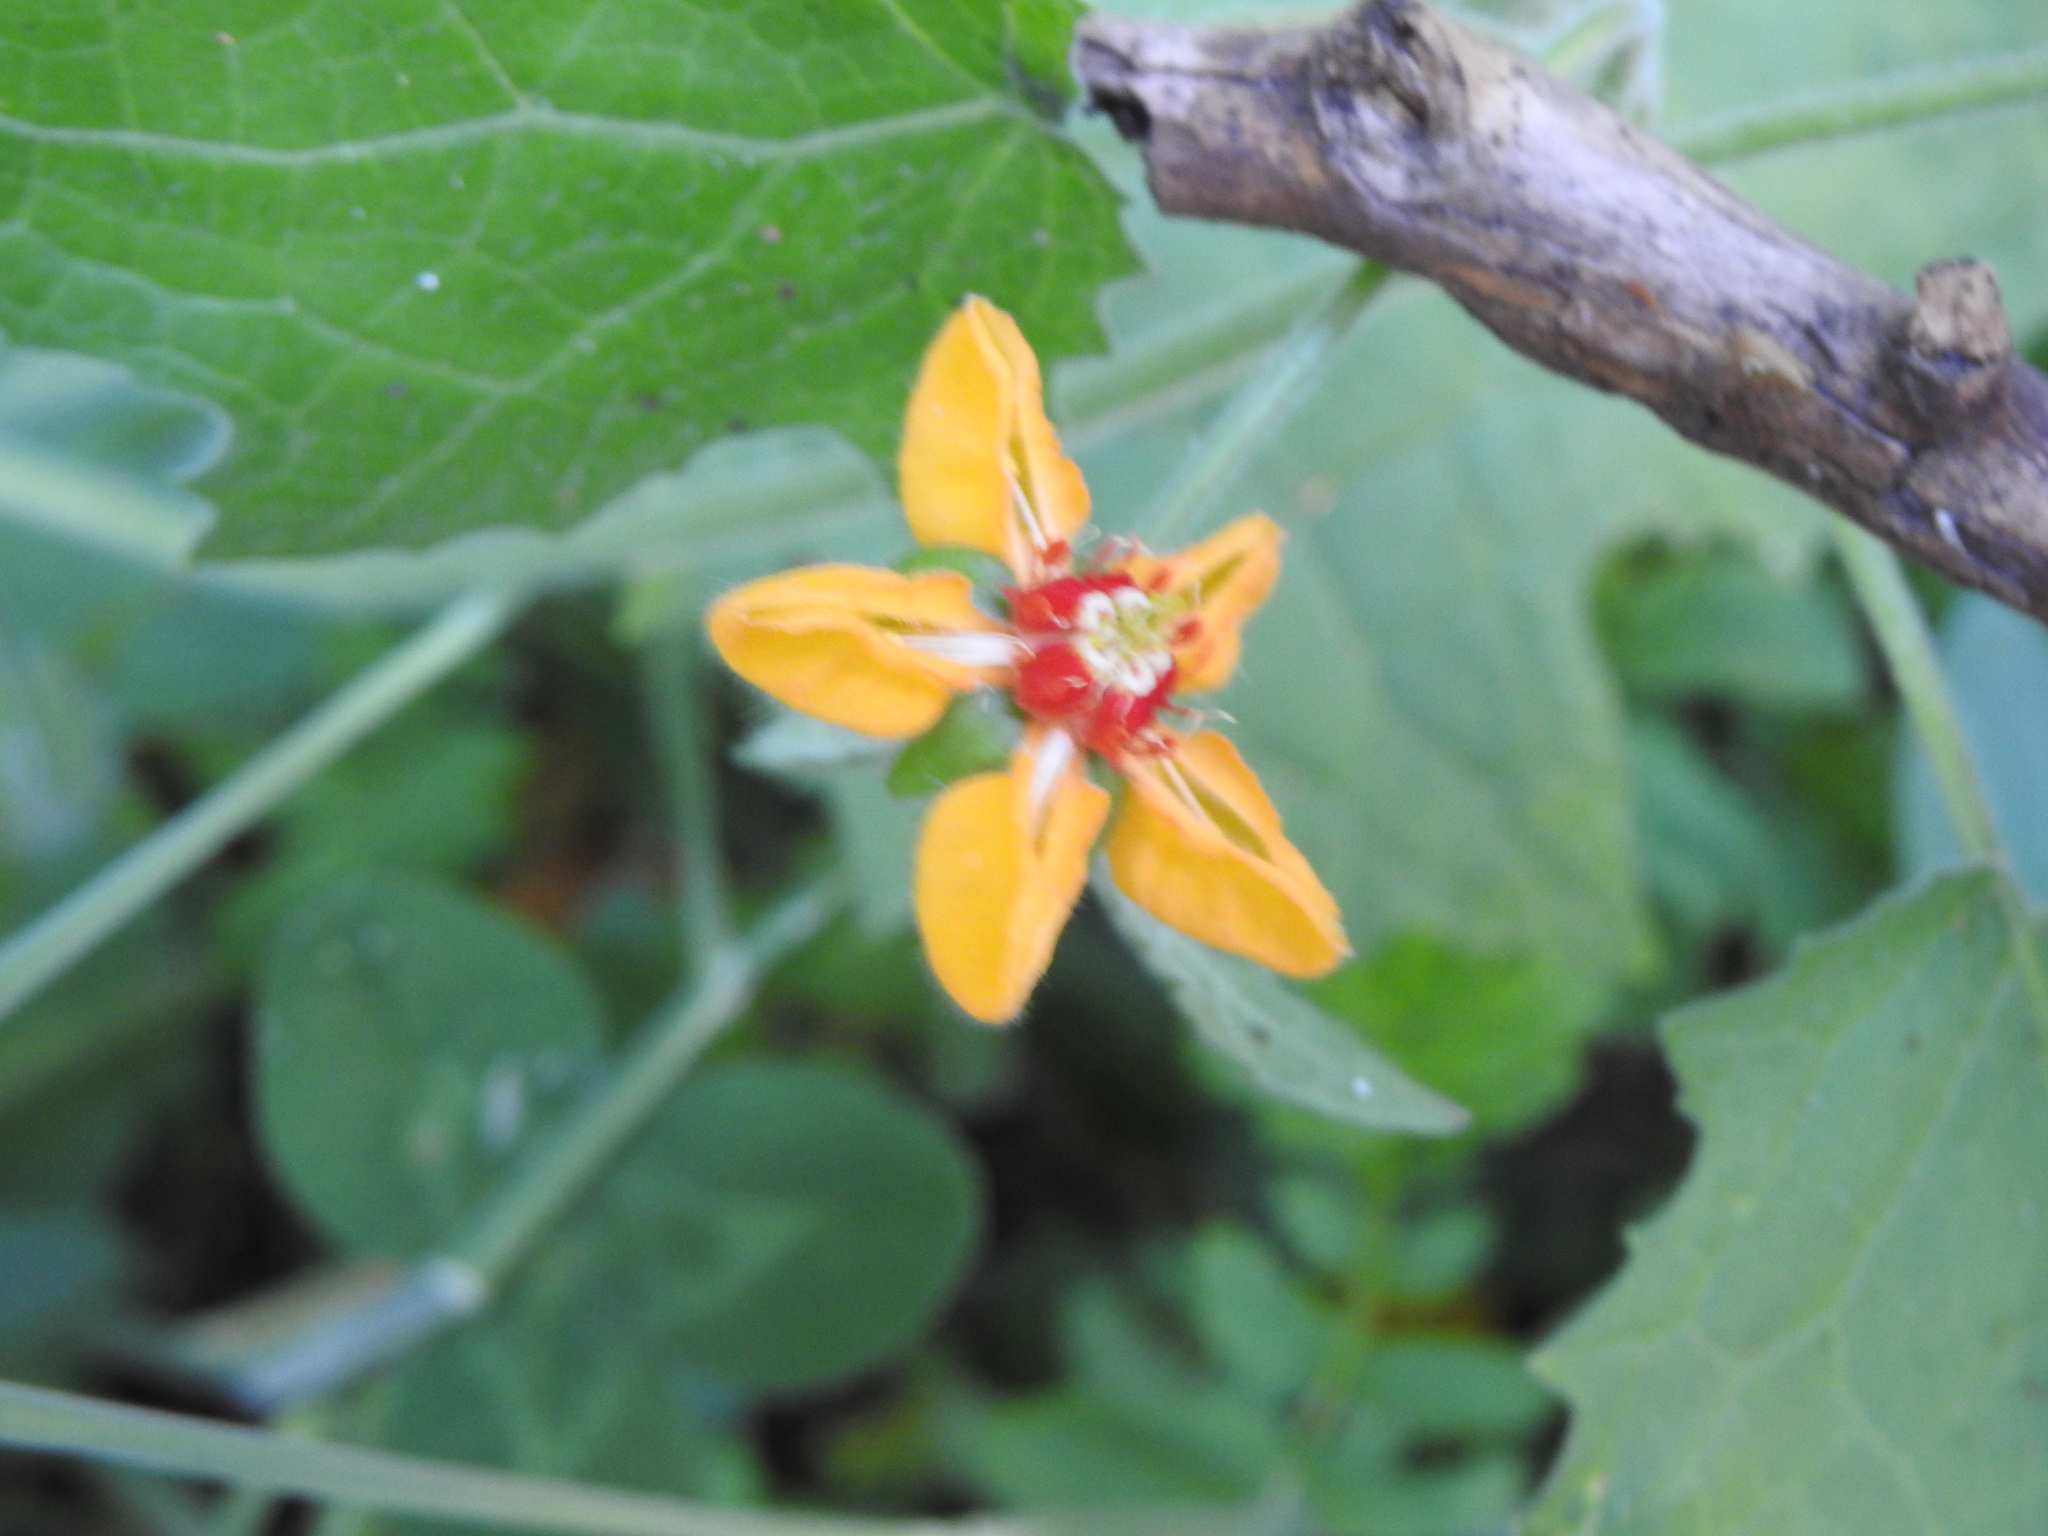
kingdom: Plantae
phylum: Tracheophyta
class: Magnoliopsida
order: Cornales
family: Loasaceae
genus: Loasa
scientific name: Loasa acerifolia
